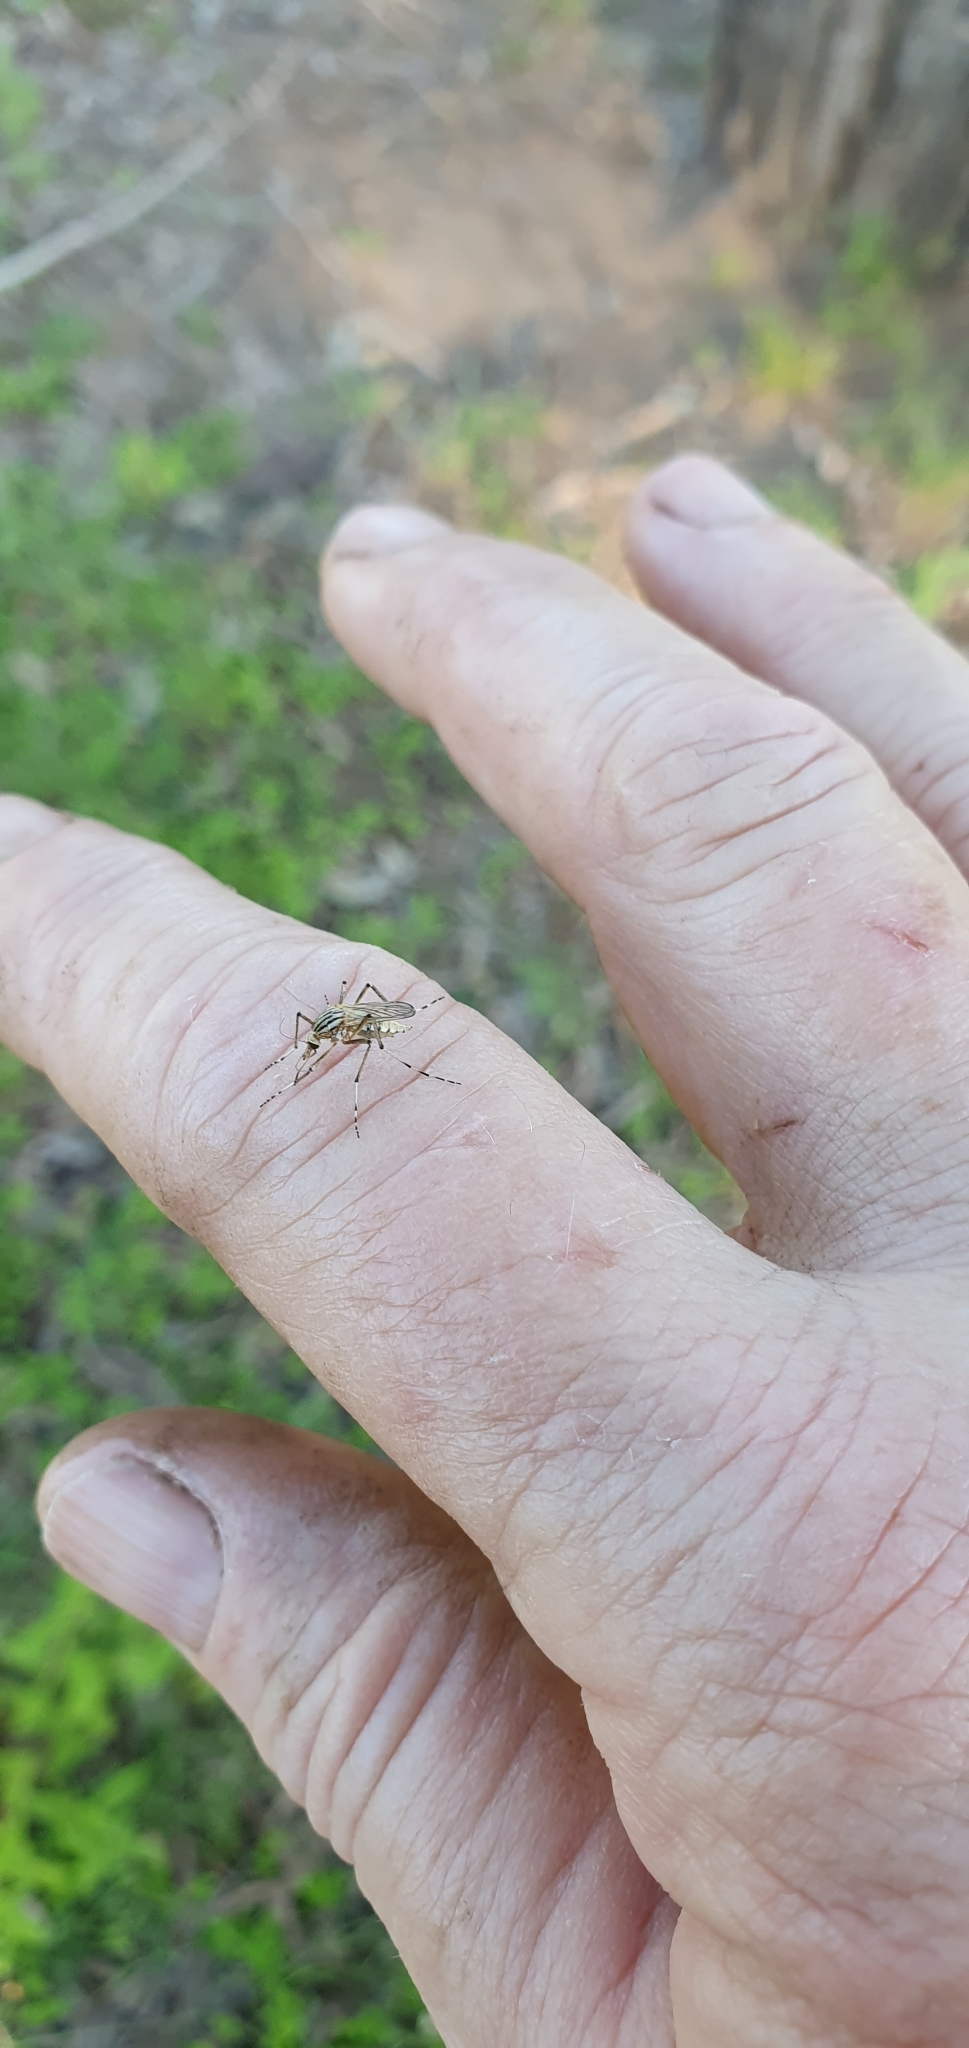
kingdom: Animalia
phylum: Arthropoda
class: Insecta
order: Diptera
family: Culicidae
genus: Aedes
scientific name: Aedes vittiger
